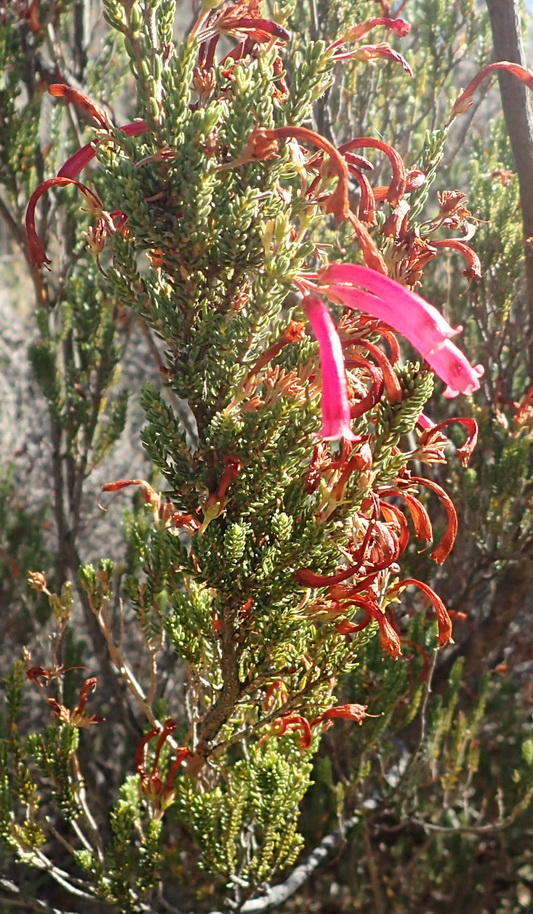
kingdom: Plantae
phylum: Tracheophyta
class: Magnoliopsida
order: Ericales
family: Ericaceae
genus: Erica
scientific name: Erica discolor
